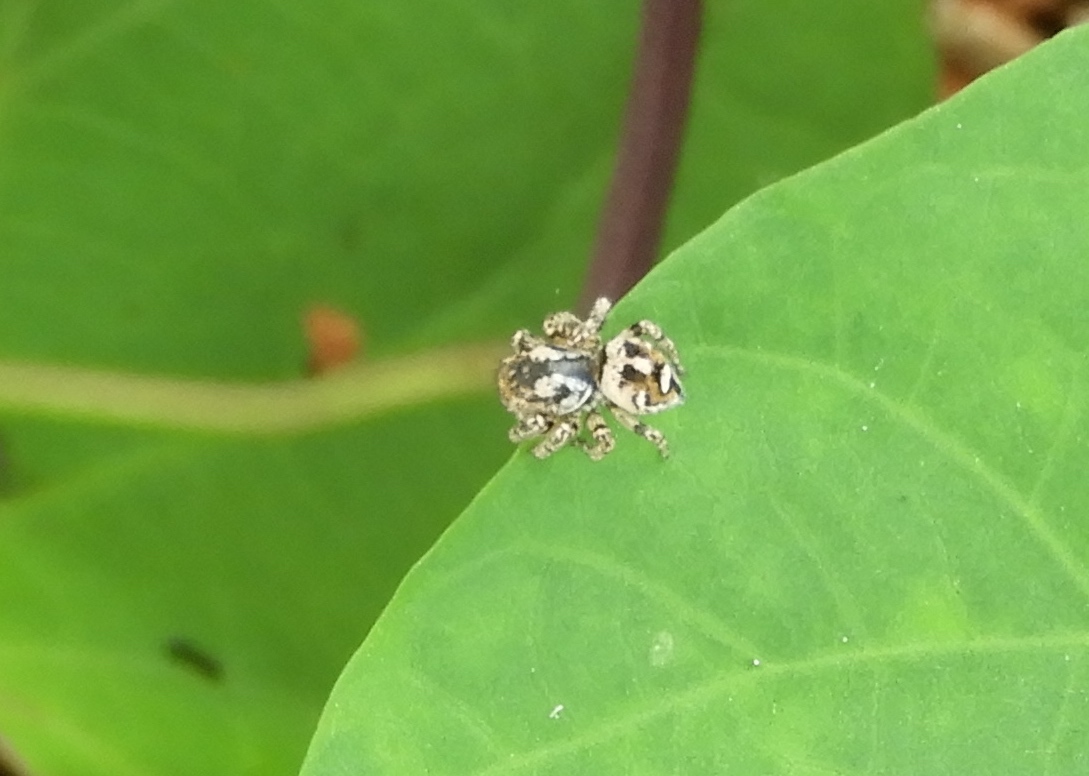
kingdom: Animalia
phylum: Arthropoda
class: Arachnida
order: Araneae
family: Salticidae
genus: Habronattus
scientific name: Habronattus
